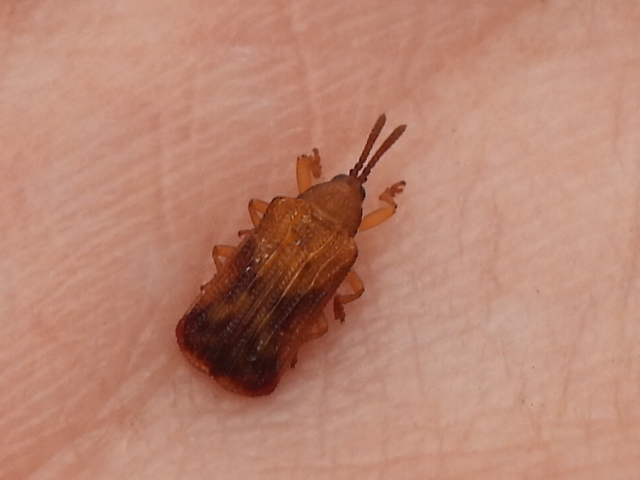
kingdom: Animalia
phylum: Arthropoda
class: Insecta
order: Coleoptera
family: Chrysomelidae
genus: Baliosus
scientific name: Baliosus nervosus
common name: Basswood leaf miner
